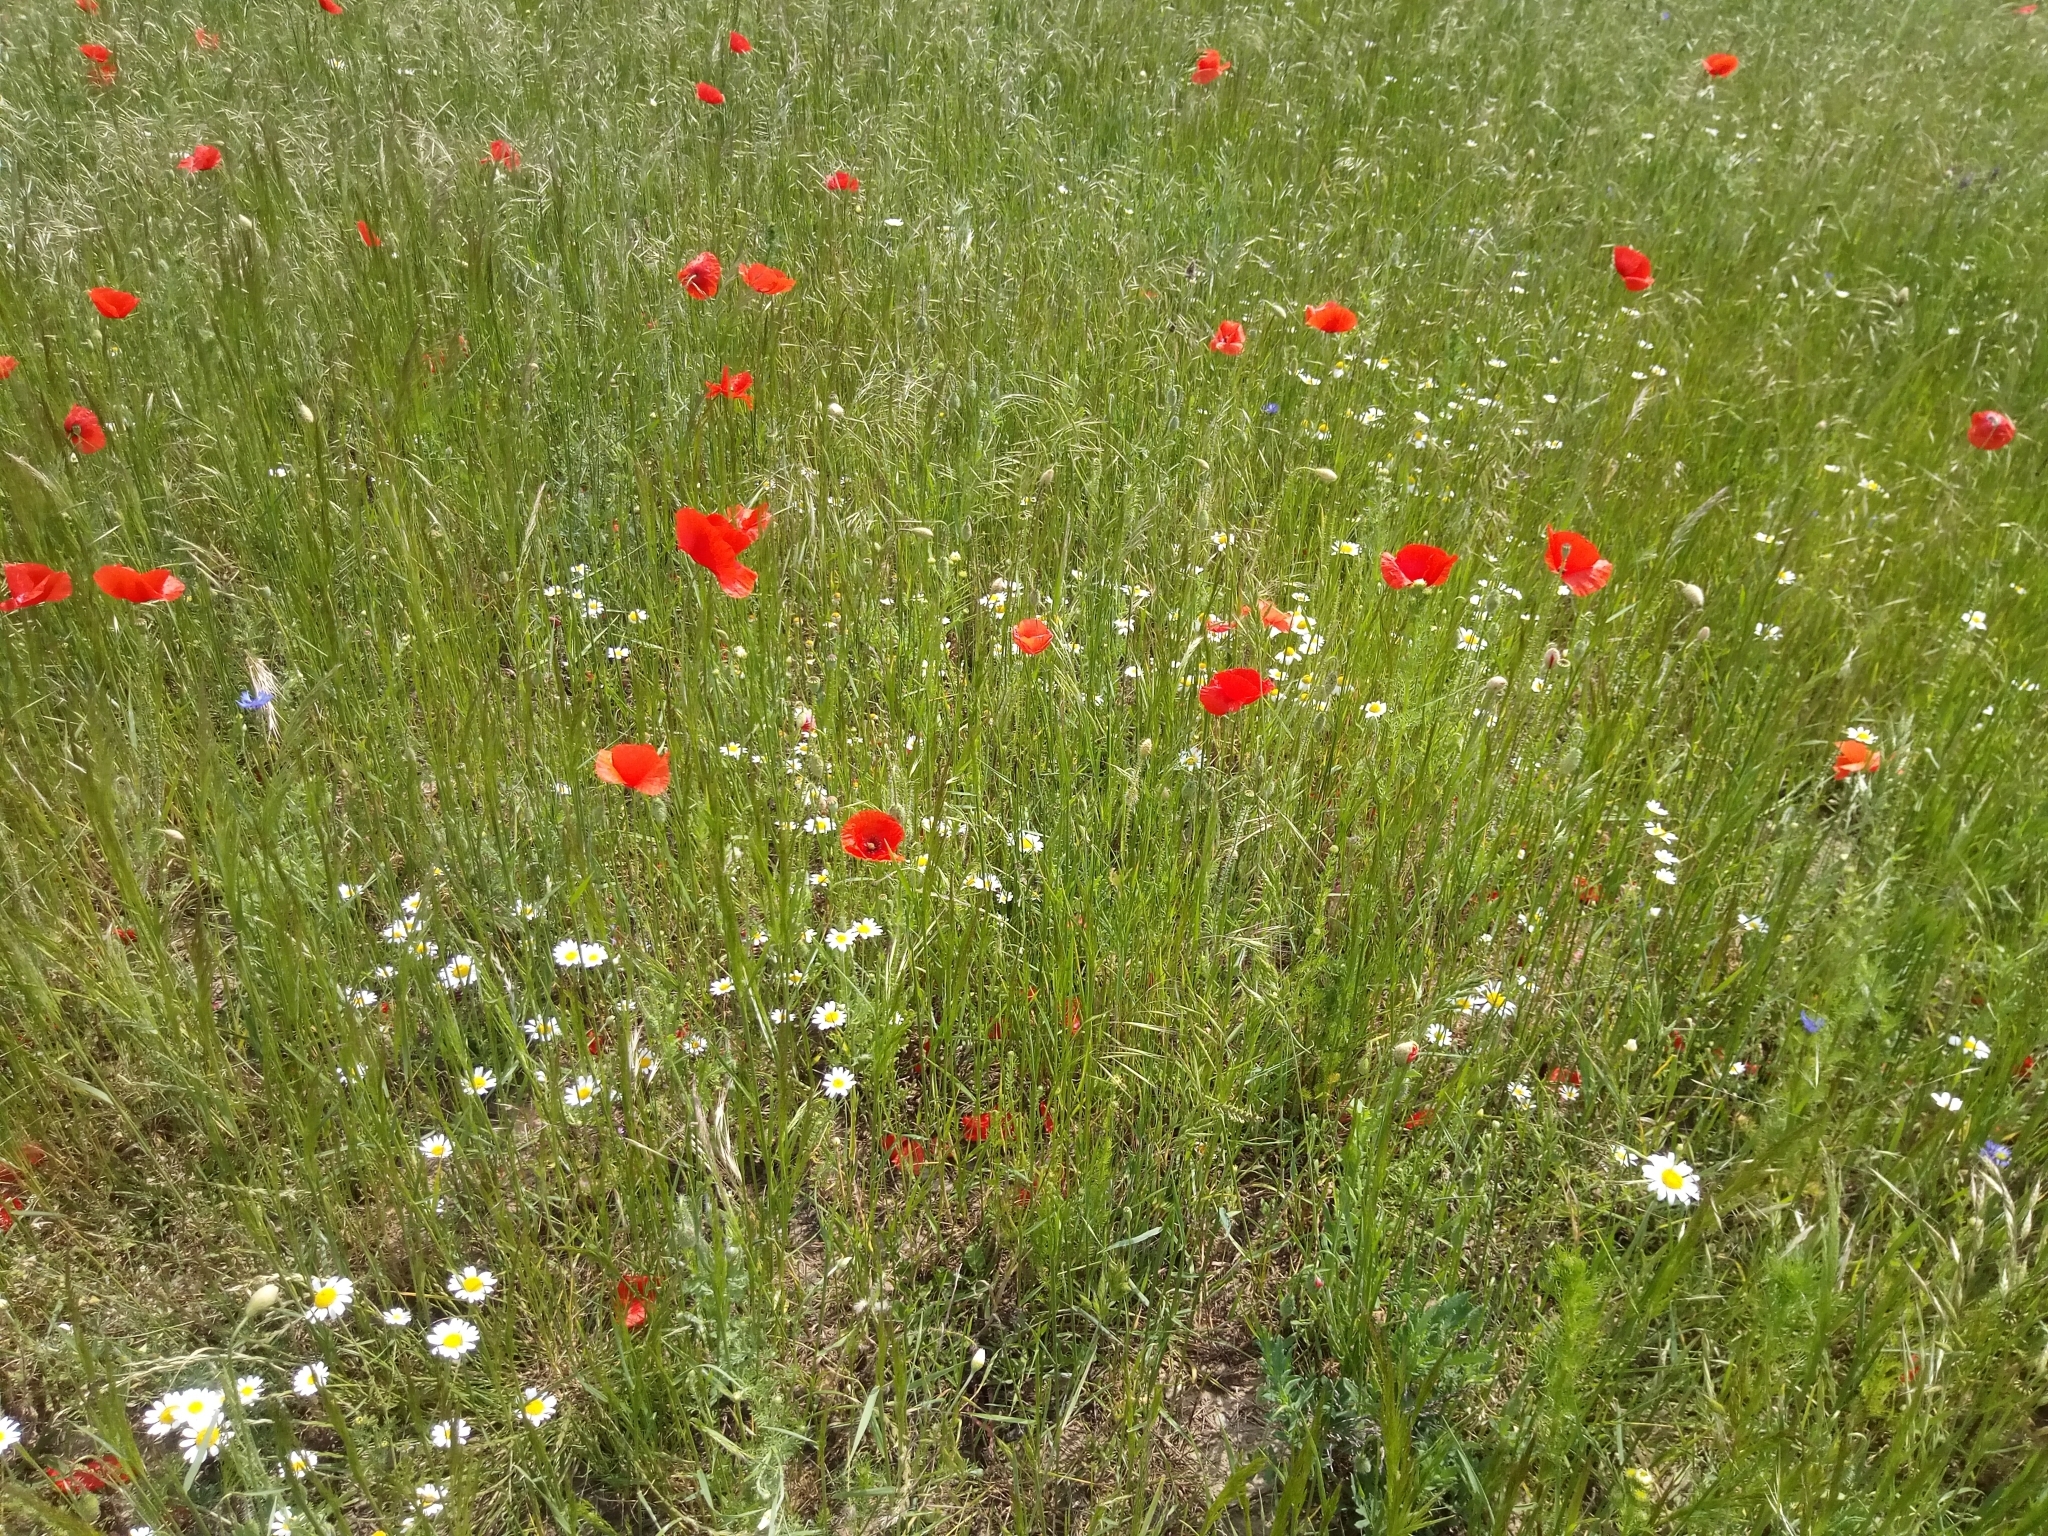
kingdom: Plantae
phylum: Tracheophyta
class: Magnoliopsida
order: Ranunculales
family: Papaveraceae
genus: Papaver
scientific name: Papaver rhoeas
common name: Corn poppy
